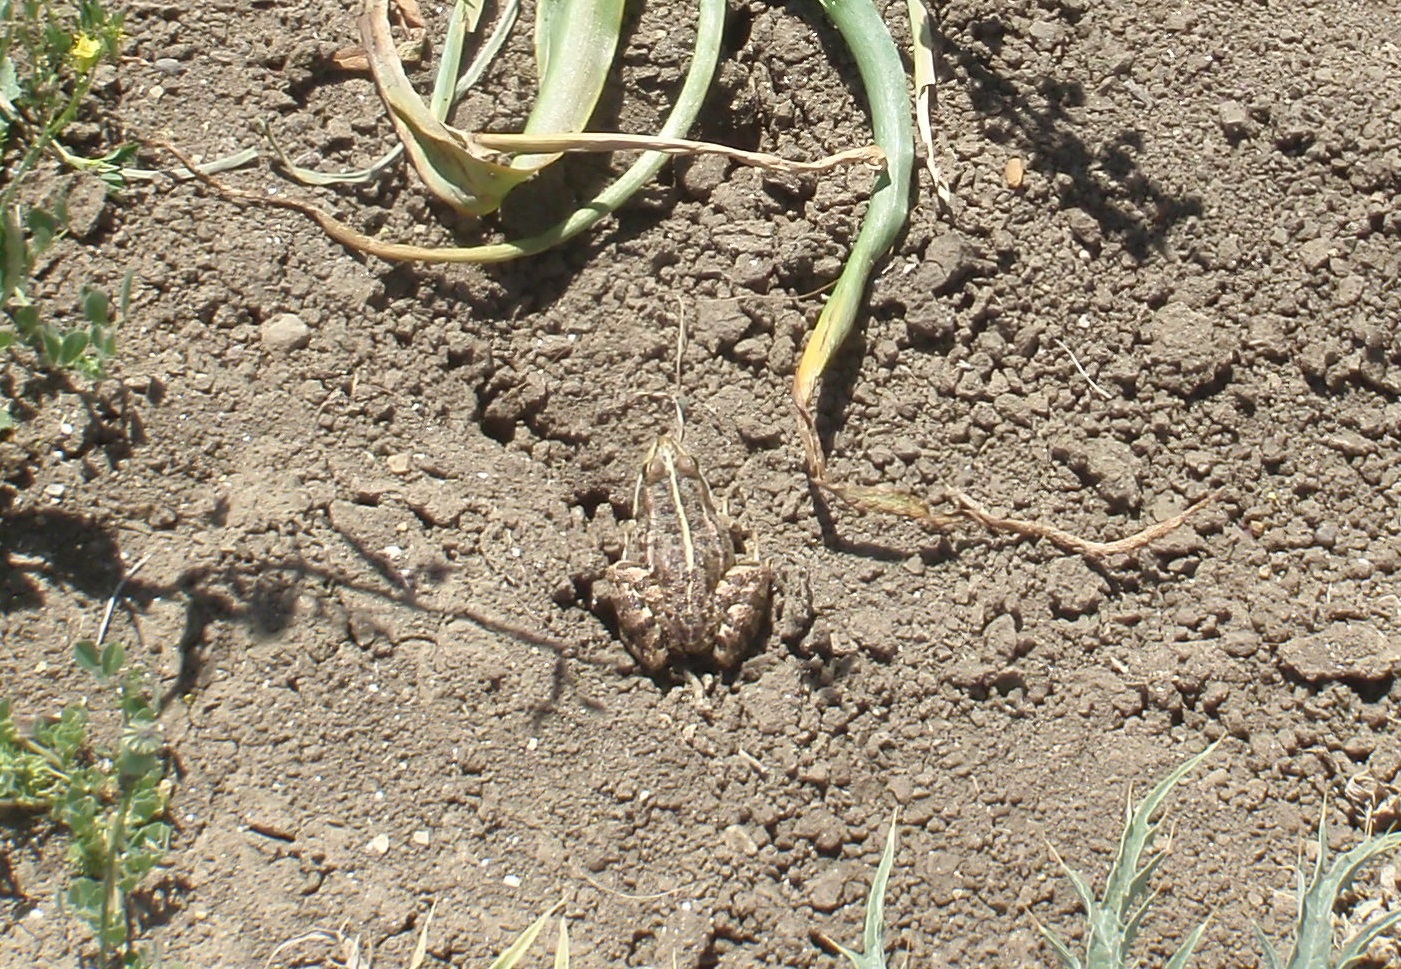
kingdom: Animalia
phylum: Chordata
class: Amphibia
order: Anura
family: Ranidae
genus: Pelophylax
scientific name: Pelophylax saharicus
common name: Sahara frog
